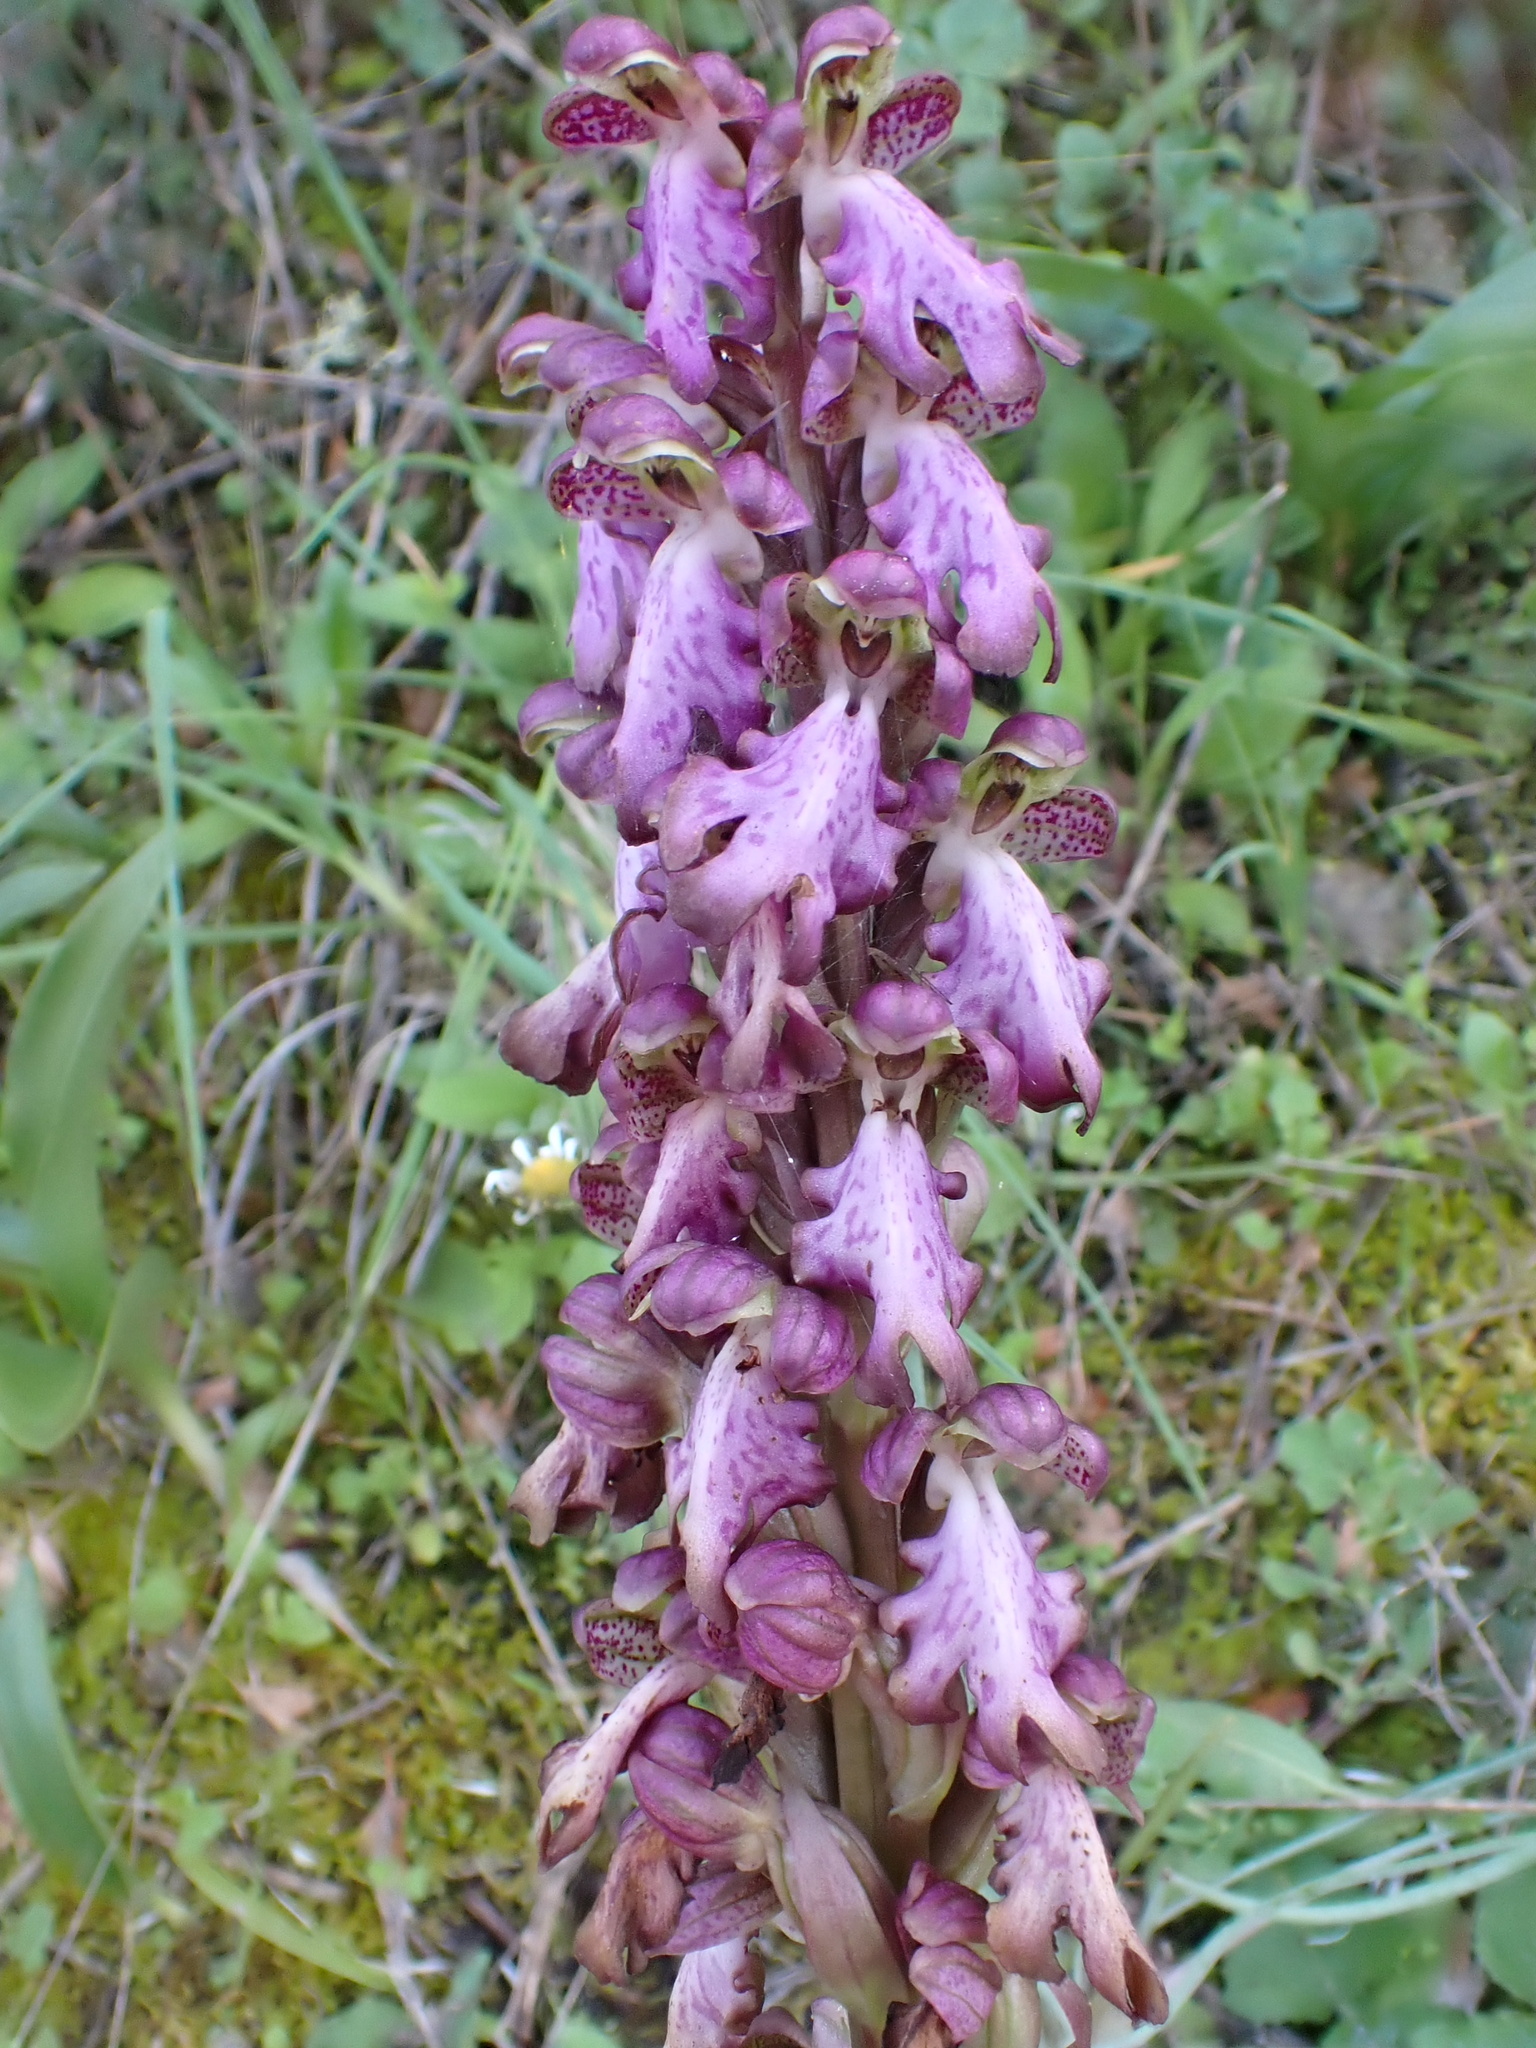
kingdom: Plantae
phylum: Tracheophyta
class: Liliopsida
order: Asparagales
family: Orchidaceae
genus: Himantoglossum
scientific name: Himantoglossum robertianum
